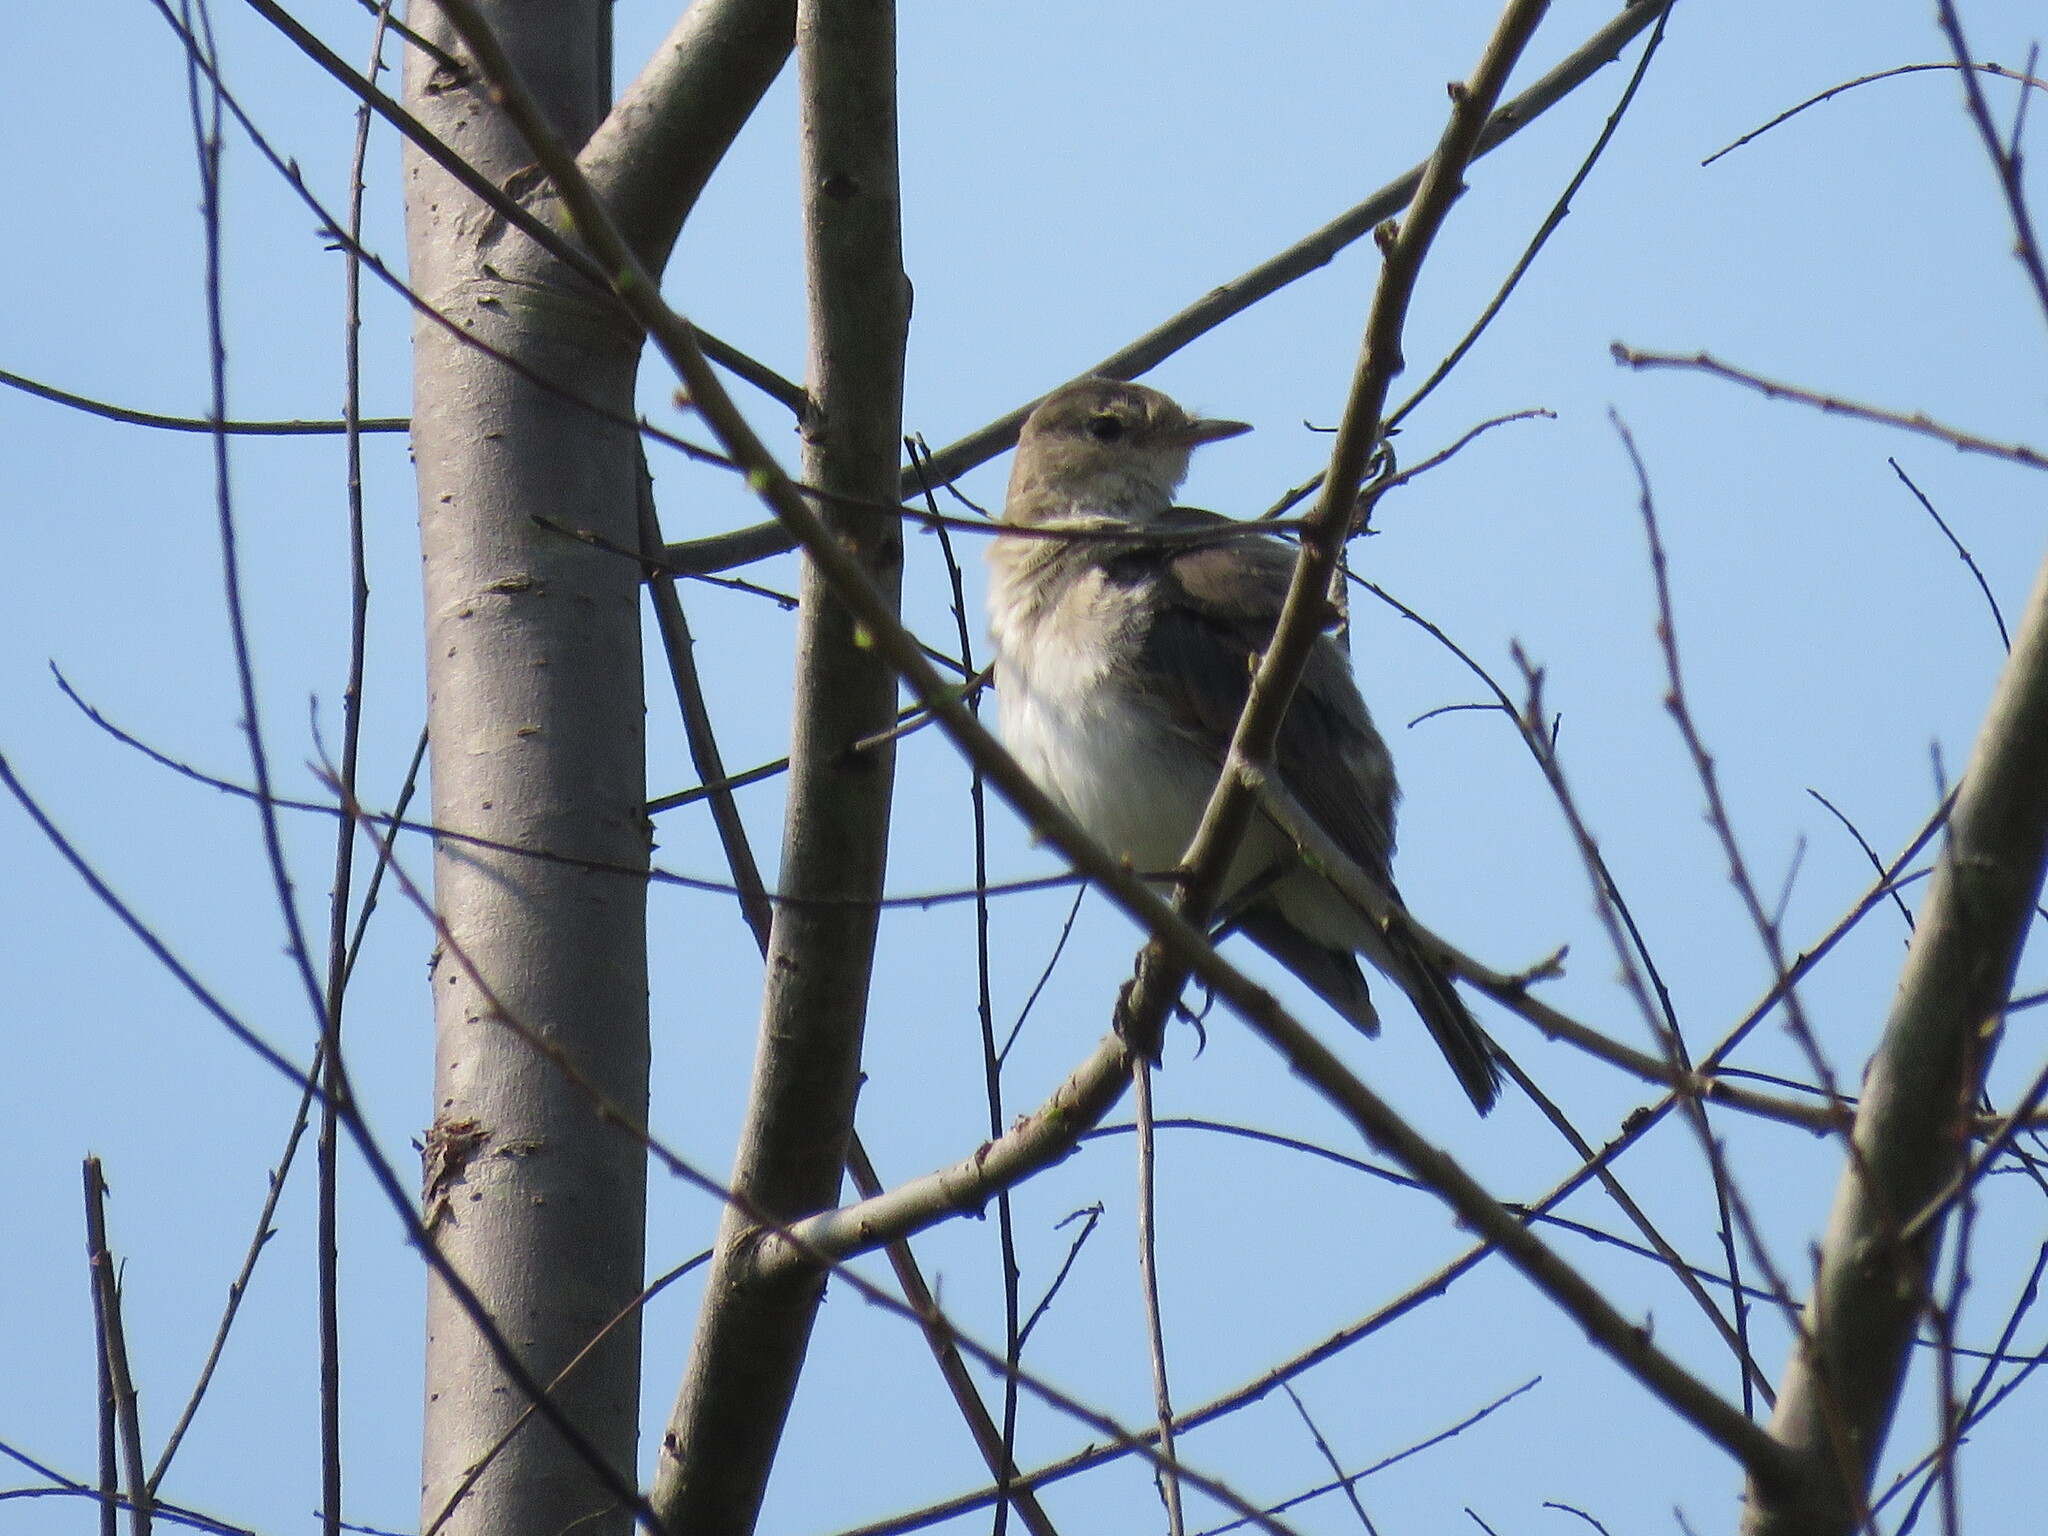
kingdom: Animalia
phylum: Chordata
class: Aves
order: Passeriformes
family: Tyrannidae
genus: Muscisaxicola
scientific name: Muscisaxicola fluviatilis
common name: Little ground tyrant
